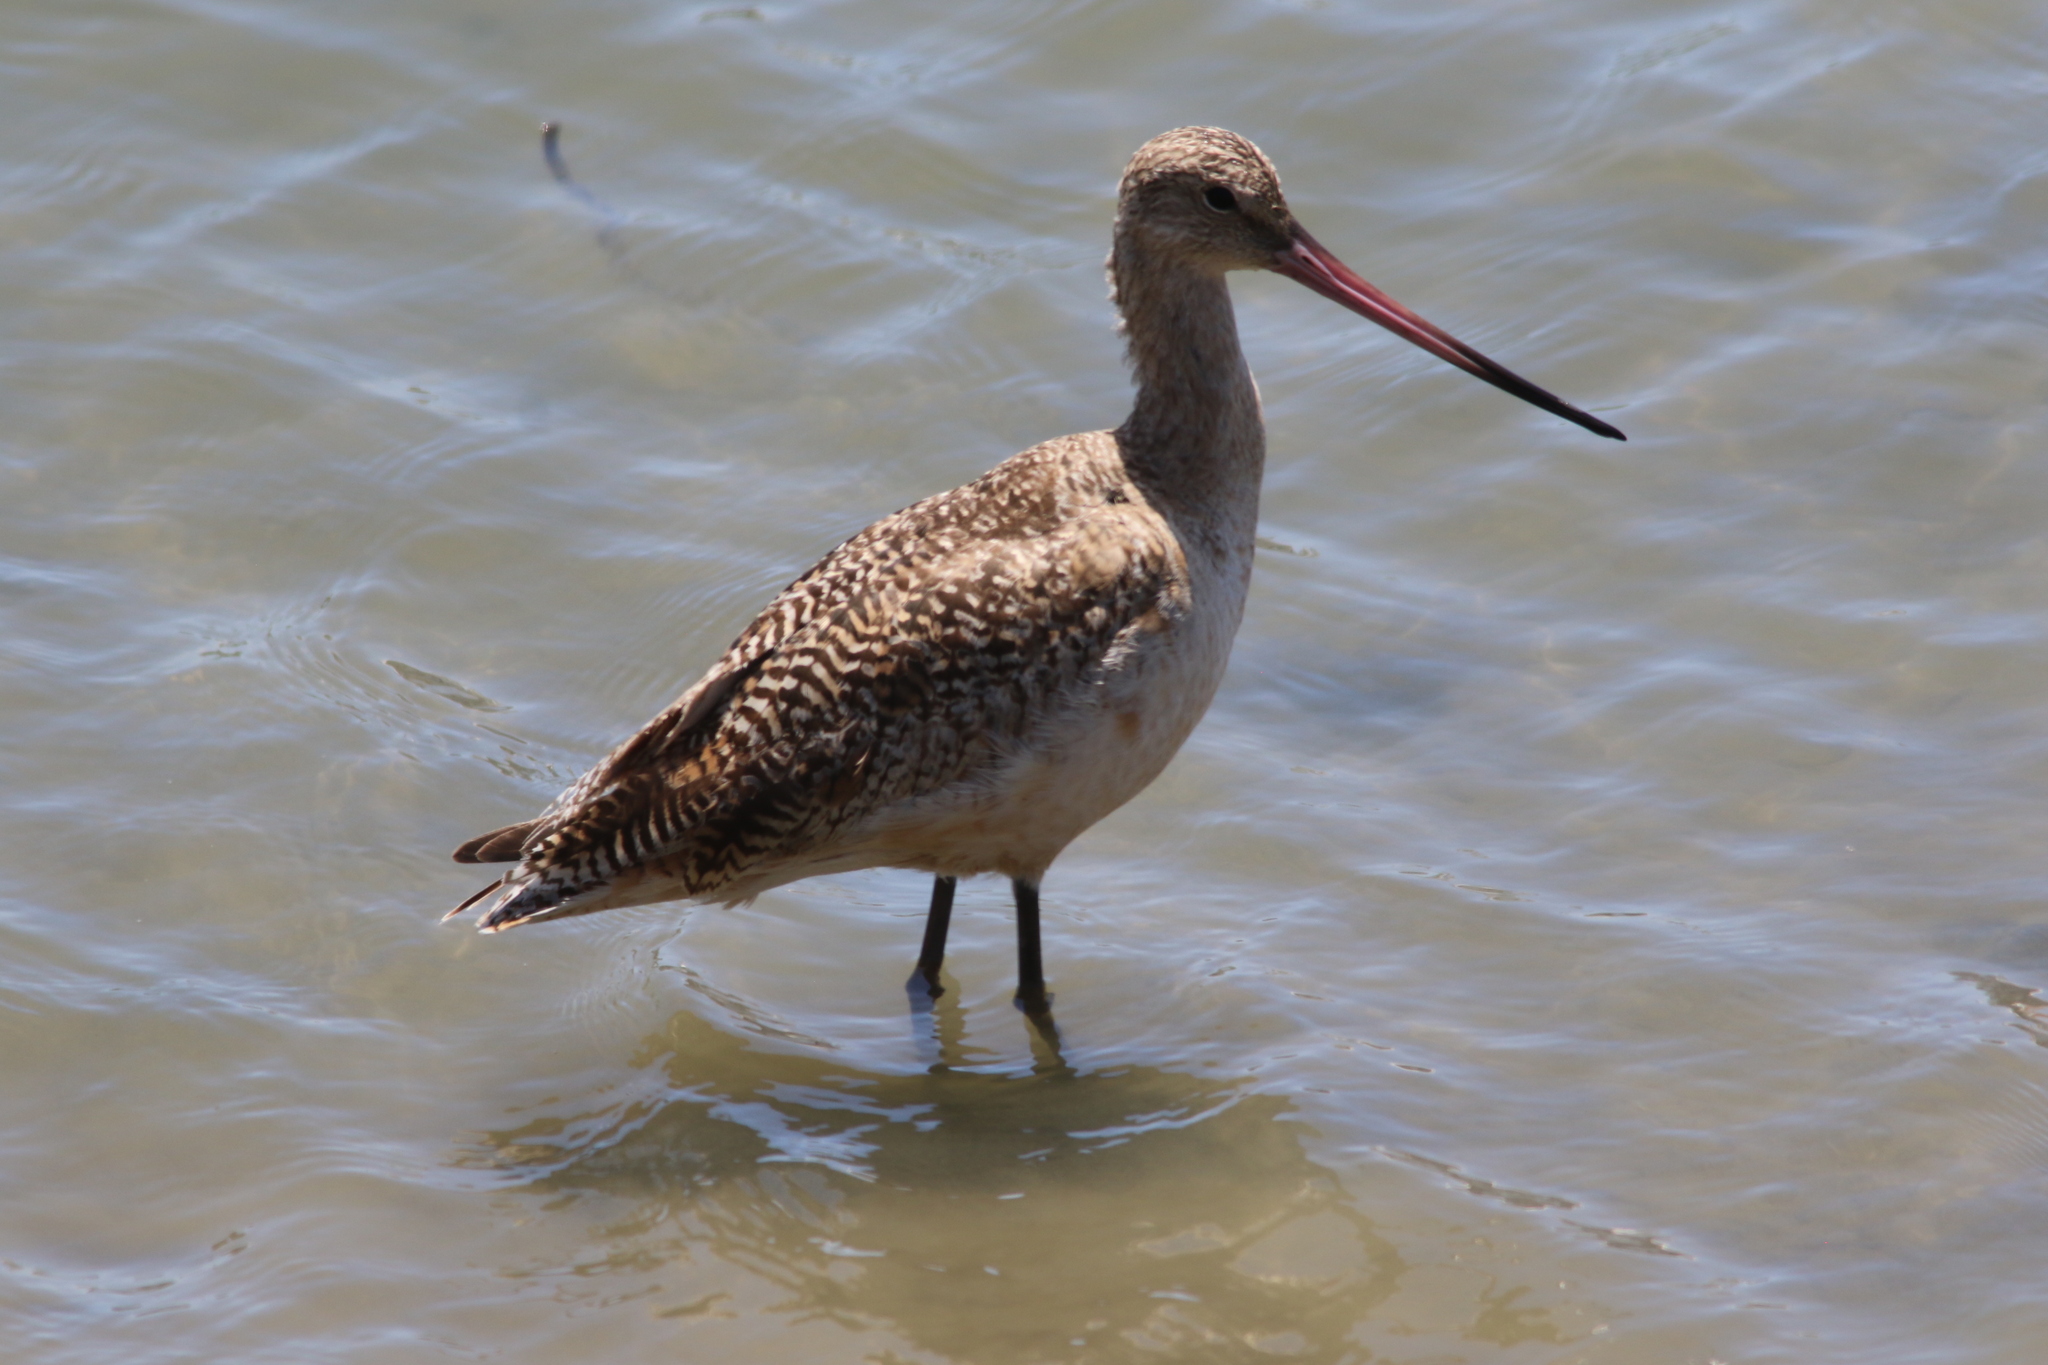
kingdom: Animalia
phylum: Chordata
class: Aves
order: Charadriiformes
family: Scolopacidae
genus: Limosa
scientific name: Limosa fedoa
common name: Marbled godwit
